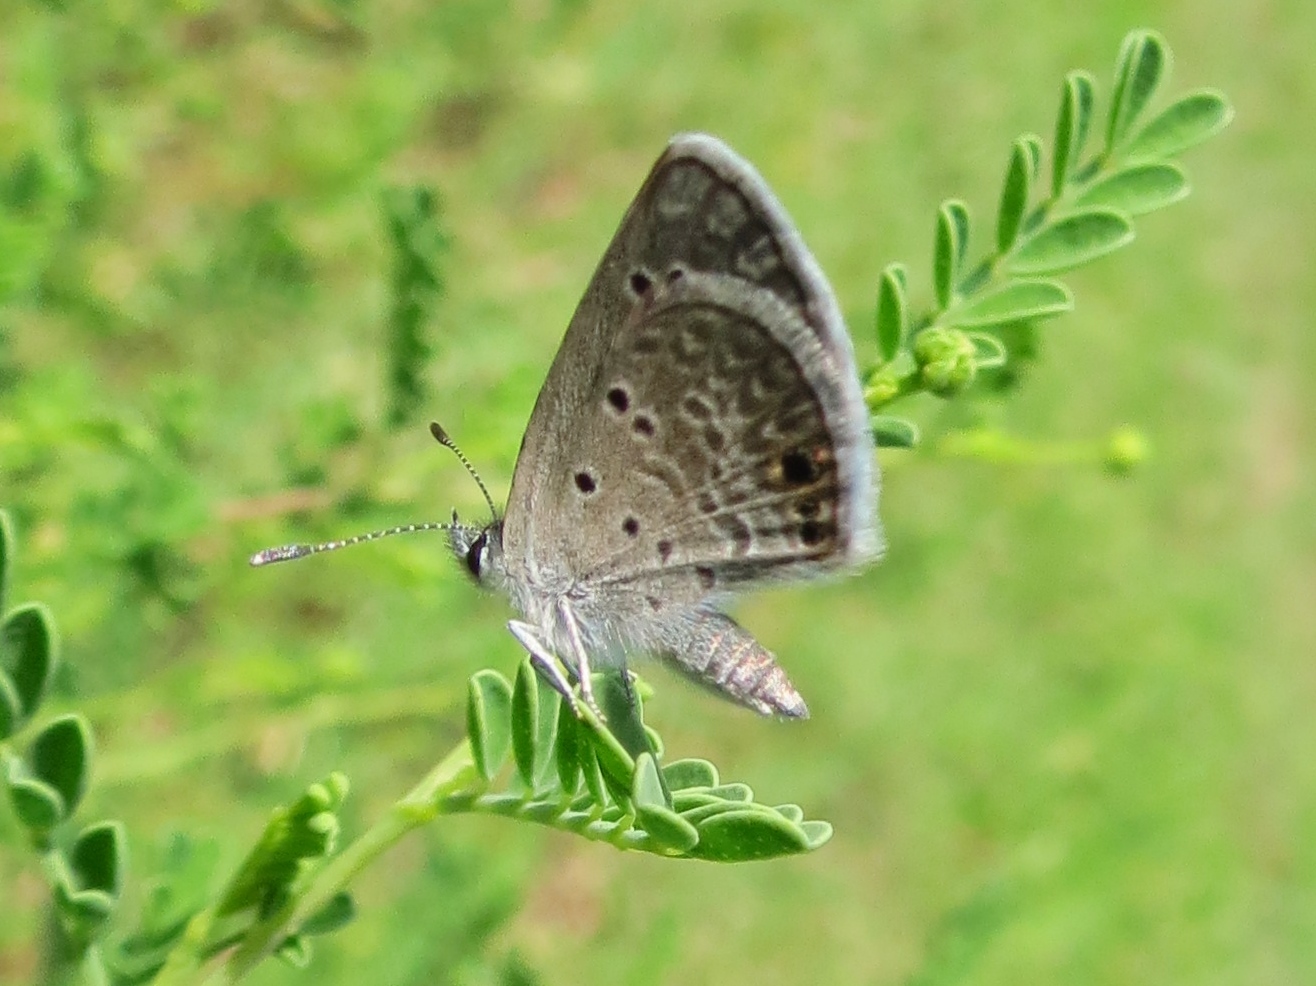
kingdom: Animalia
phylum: Arthropoda
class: Insecta
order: Lepidoptera
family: Lycaenidae
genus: Echinargus
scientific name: Echinargus isola
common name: Reakirt's blue
